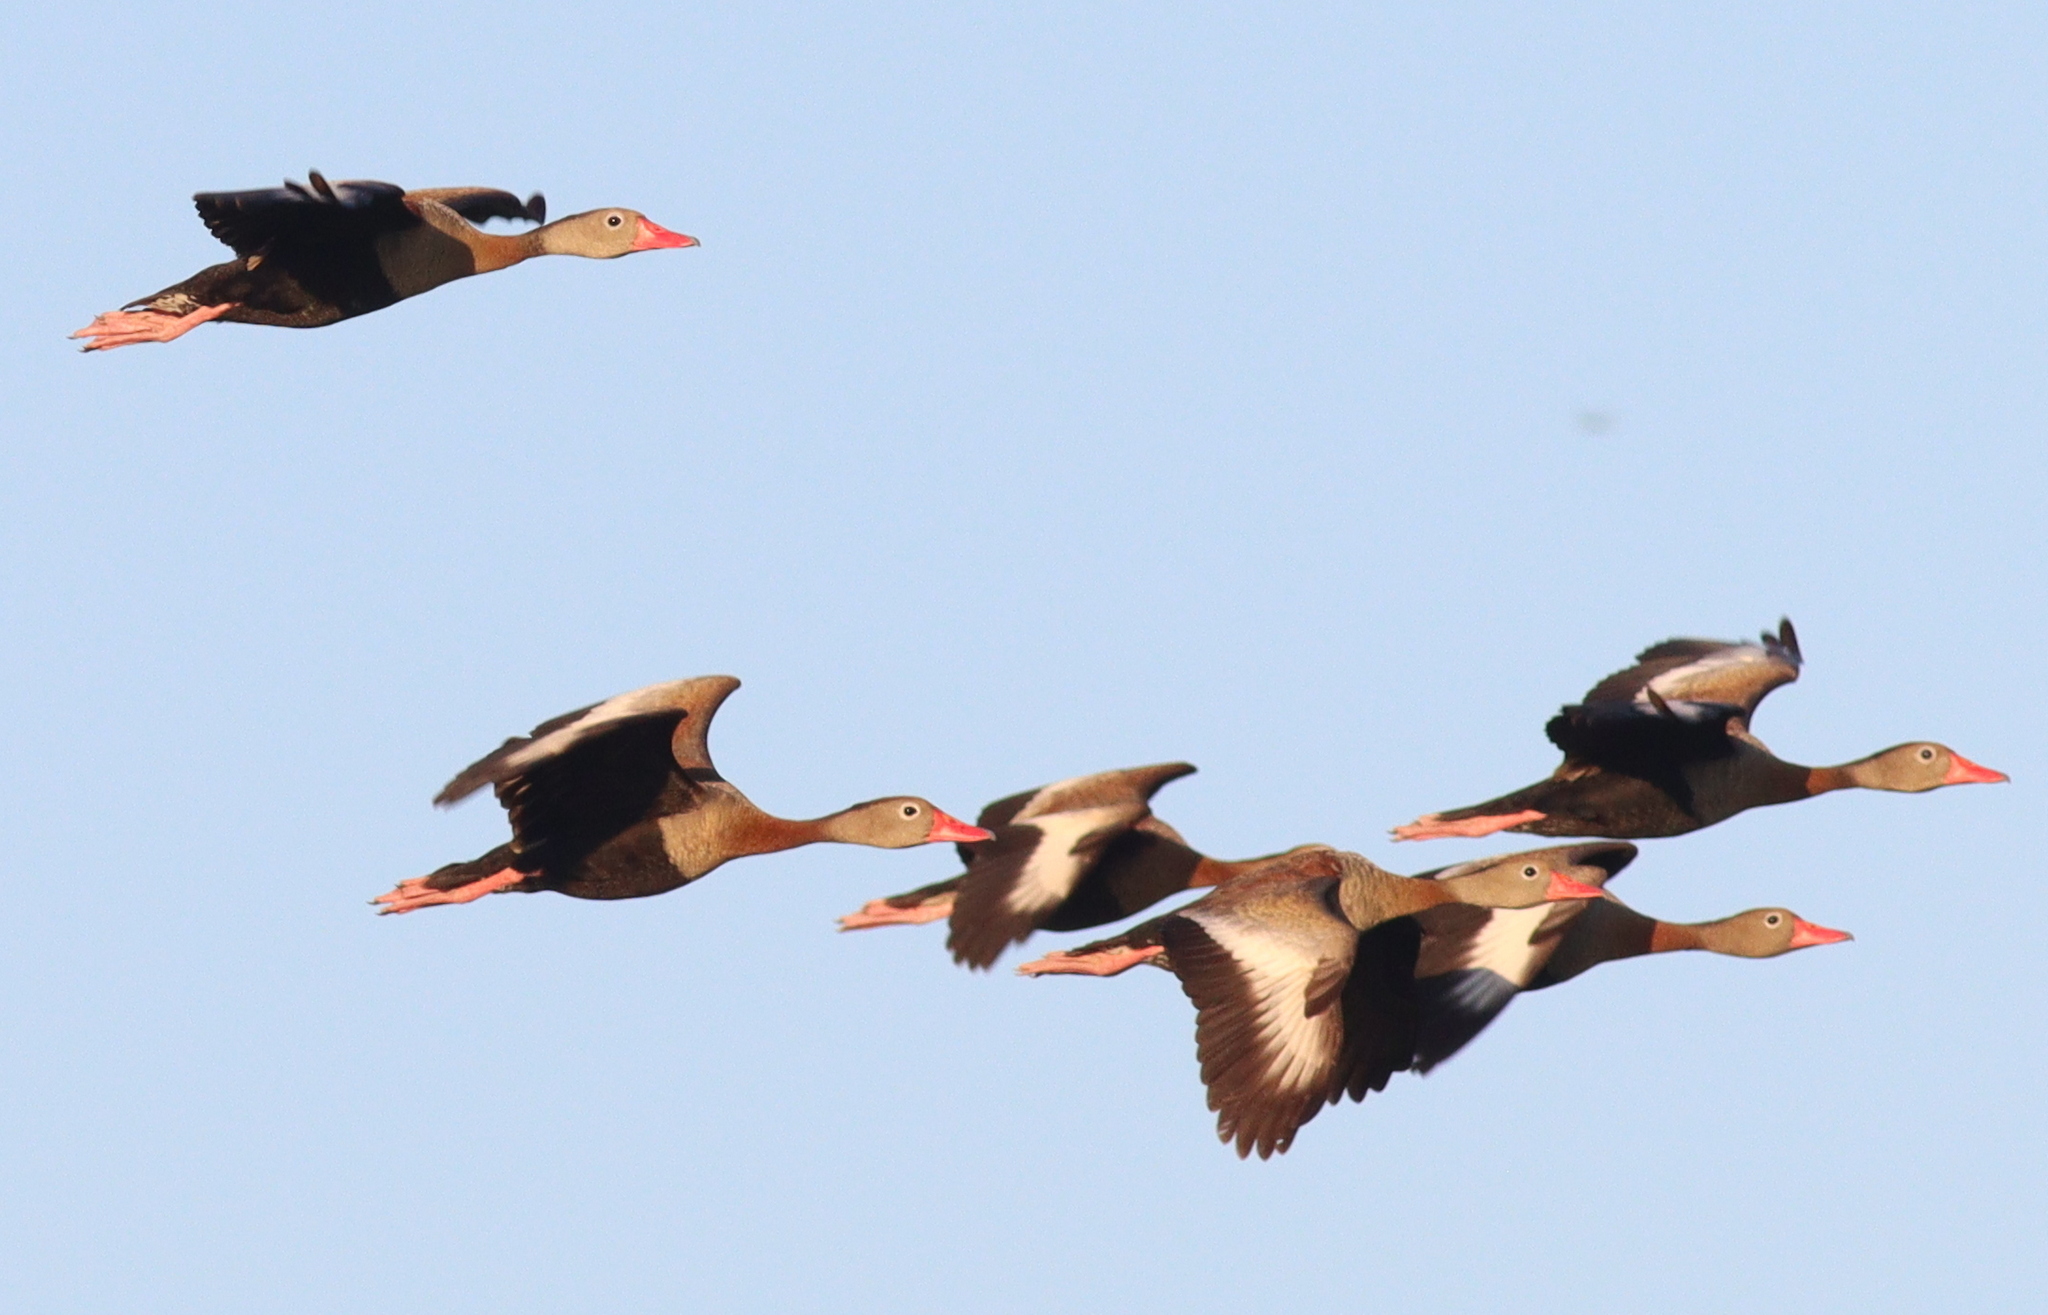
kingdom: Animalia
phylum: Chordata
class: Aves
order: Anseriformes
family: Anatidae
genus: Dendrocygna
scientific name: Dendrocygna autumnalis
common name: Black-bellied whistling duck
